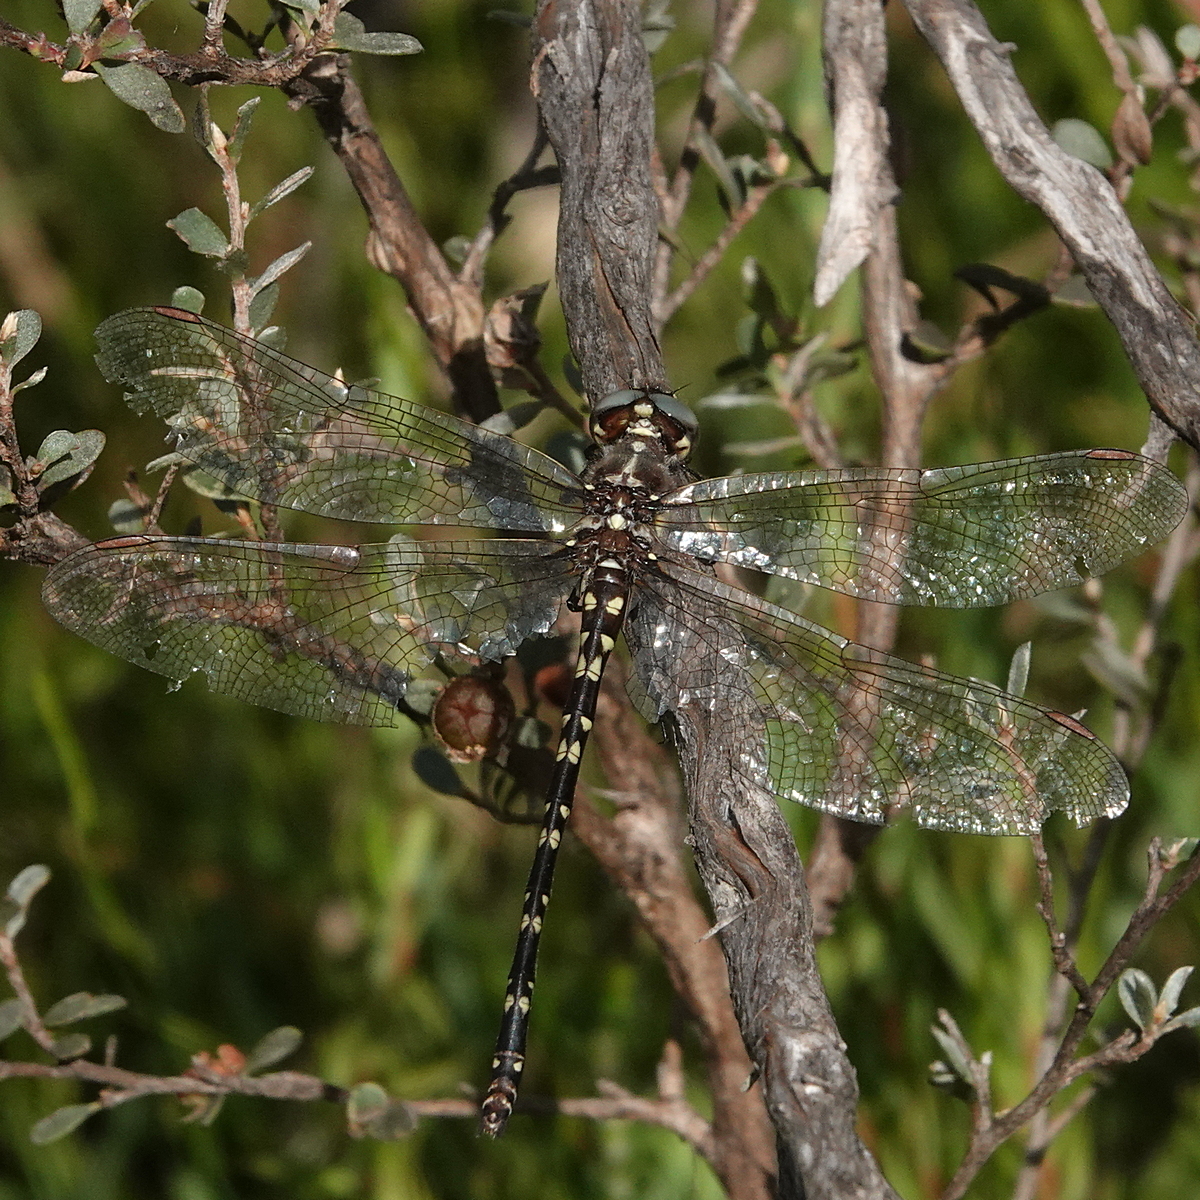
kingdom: Animalia
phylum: Arthropoda
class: Insecta
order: Odonata
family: Synthemistidae
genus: Synthemis
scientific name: Synthemis eustalacta
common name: Swamp tigertail
